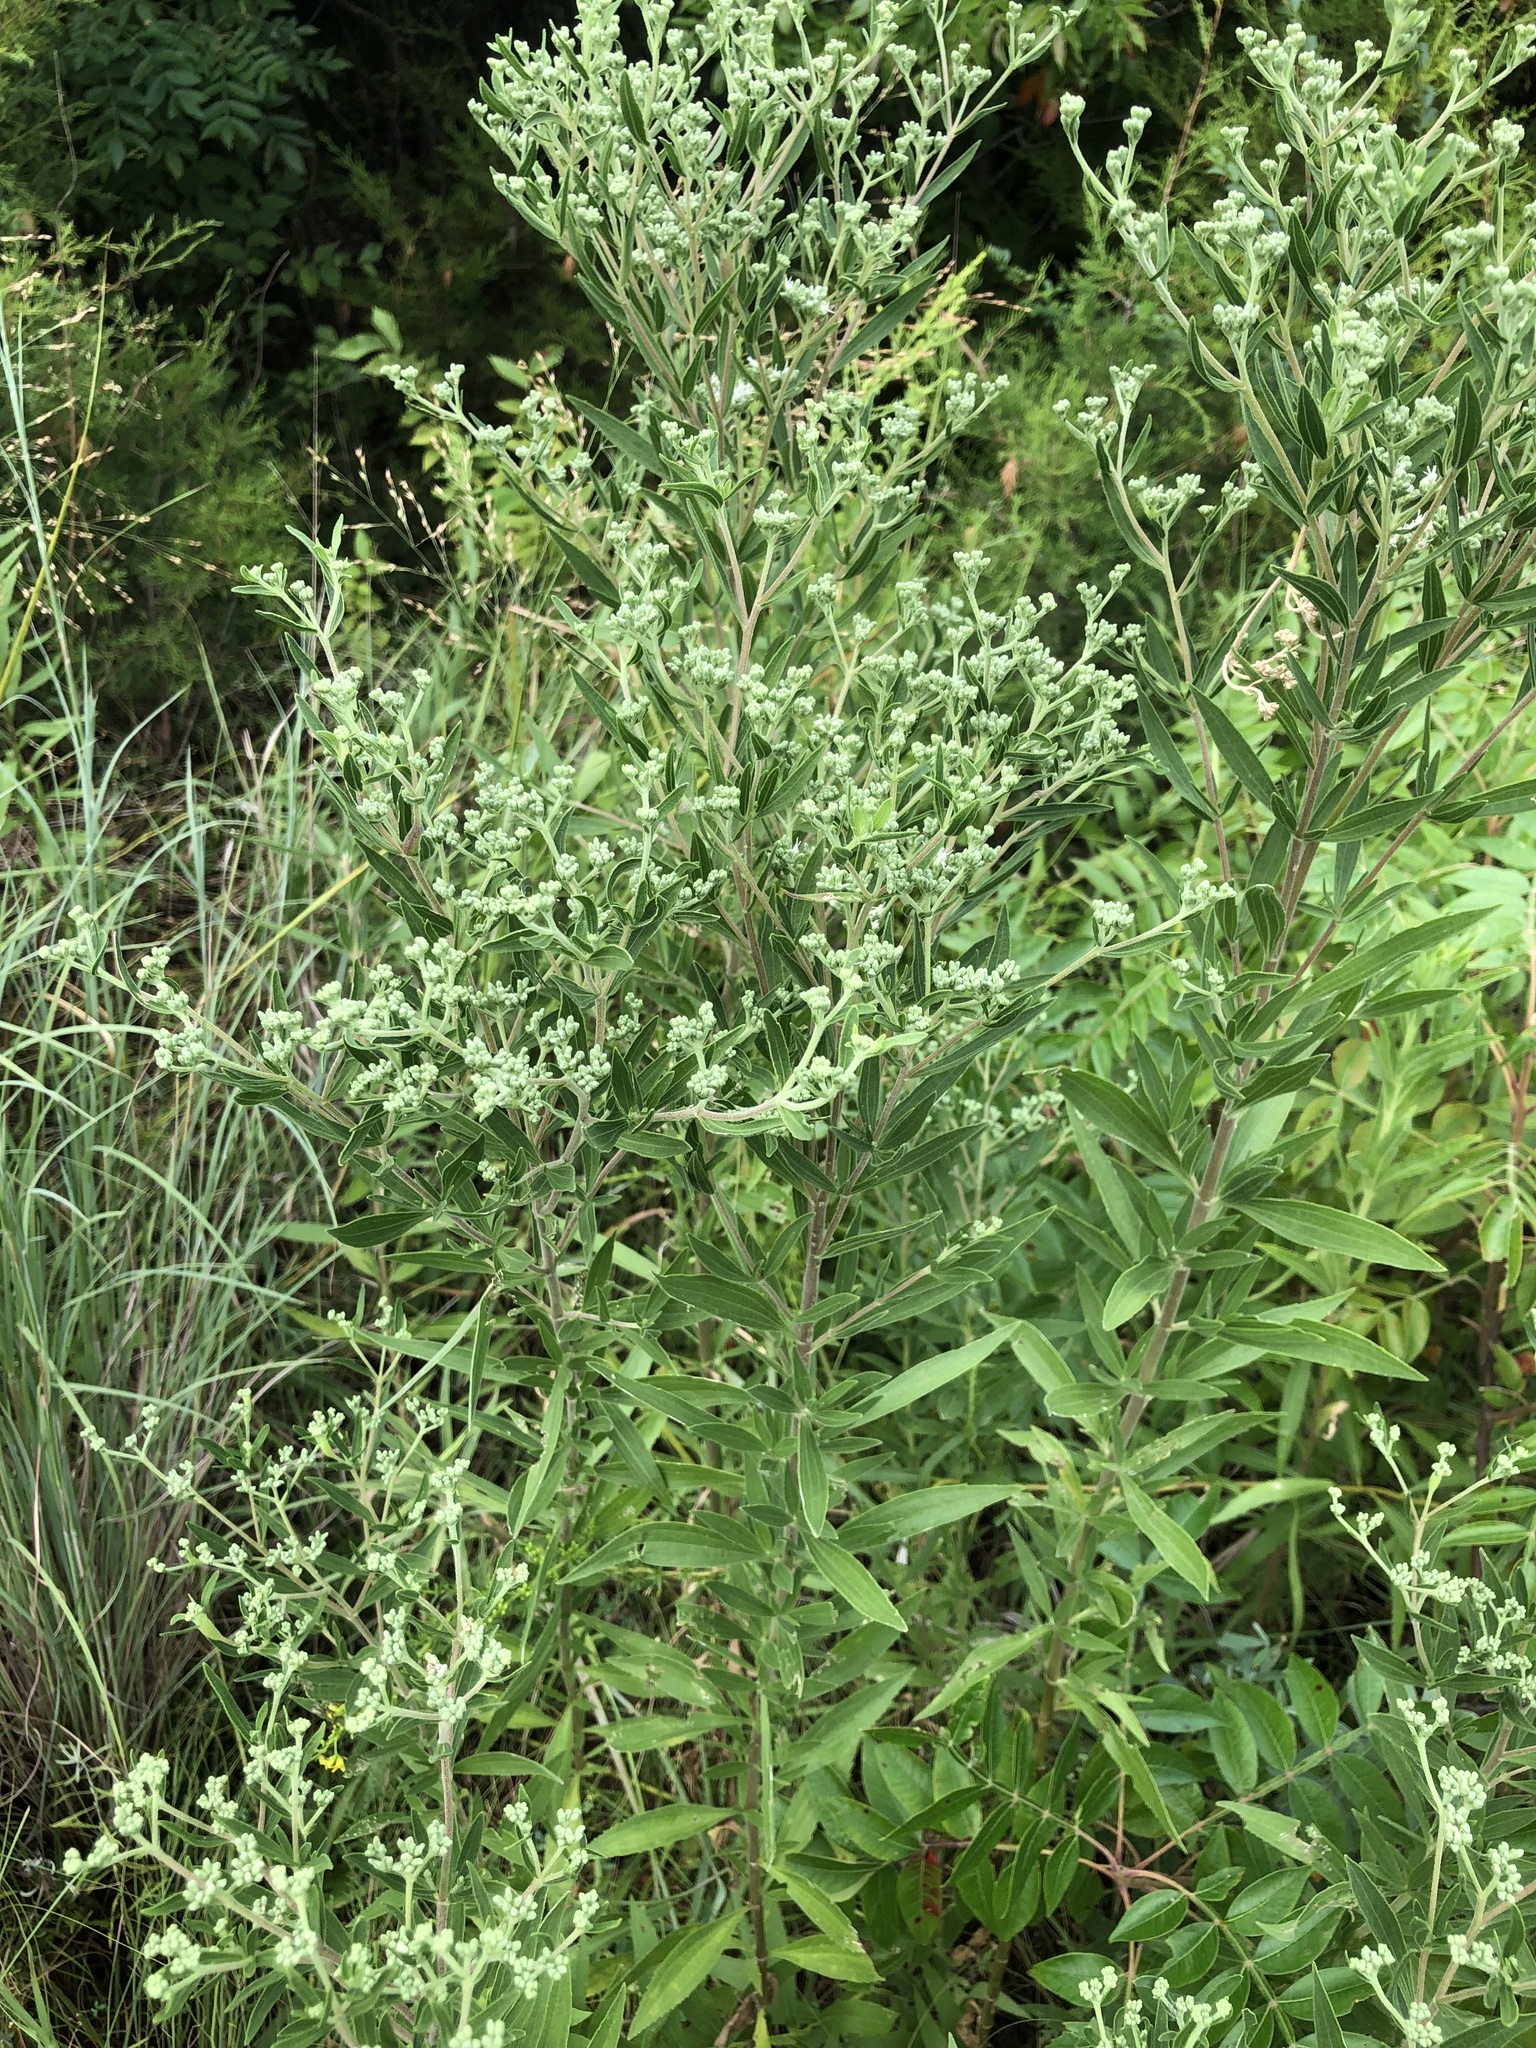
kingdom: Plantae
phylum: Tracheophyta
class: Magnoliopsida
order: Asterales
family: Asteraceae
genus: Eupatorium
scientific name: Eupatorium altissimum
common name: Tall thoroughwort
